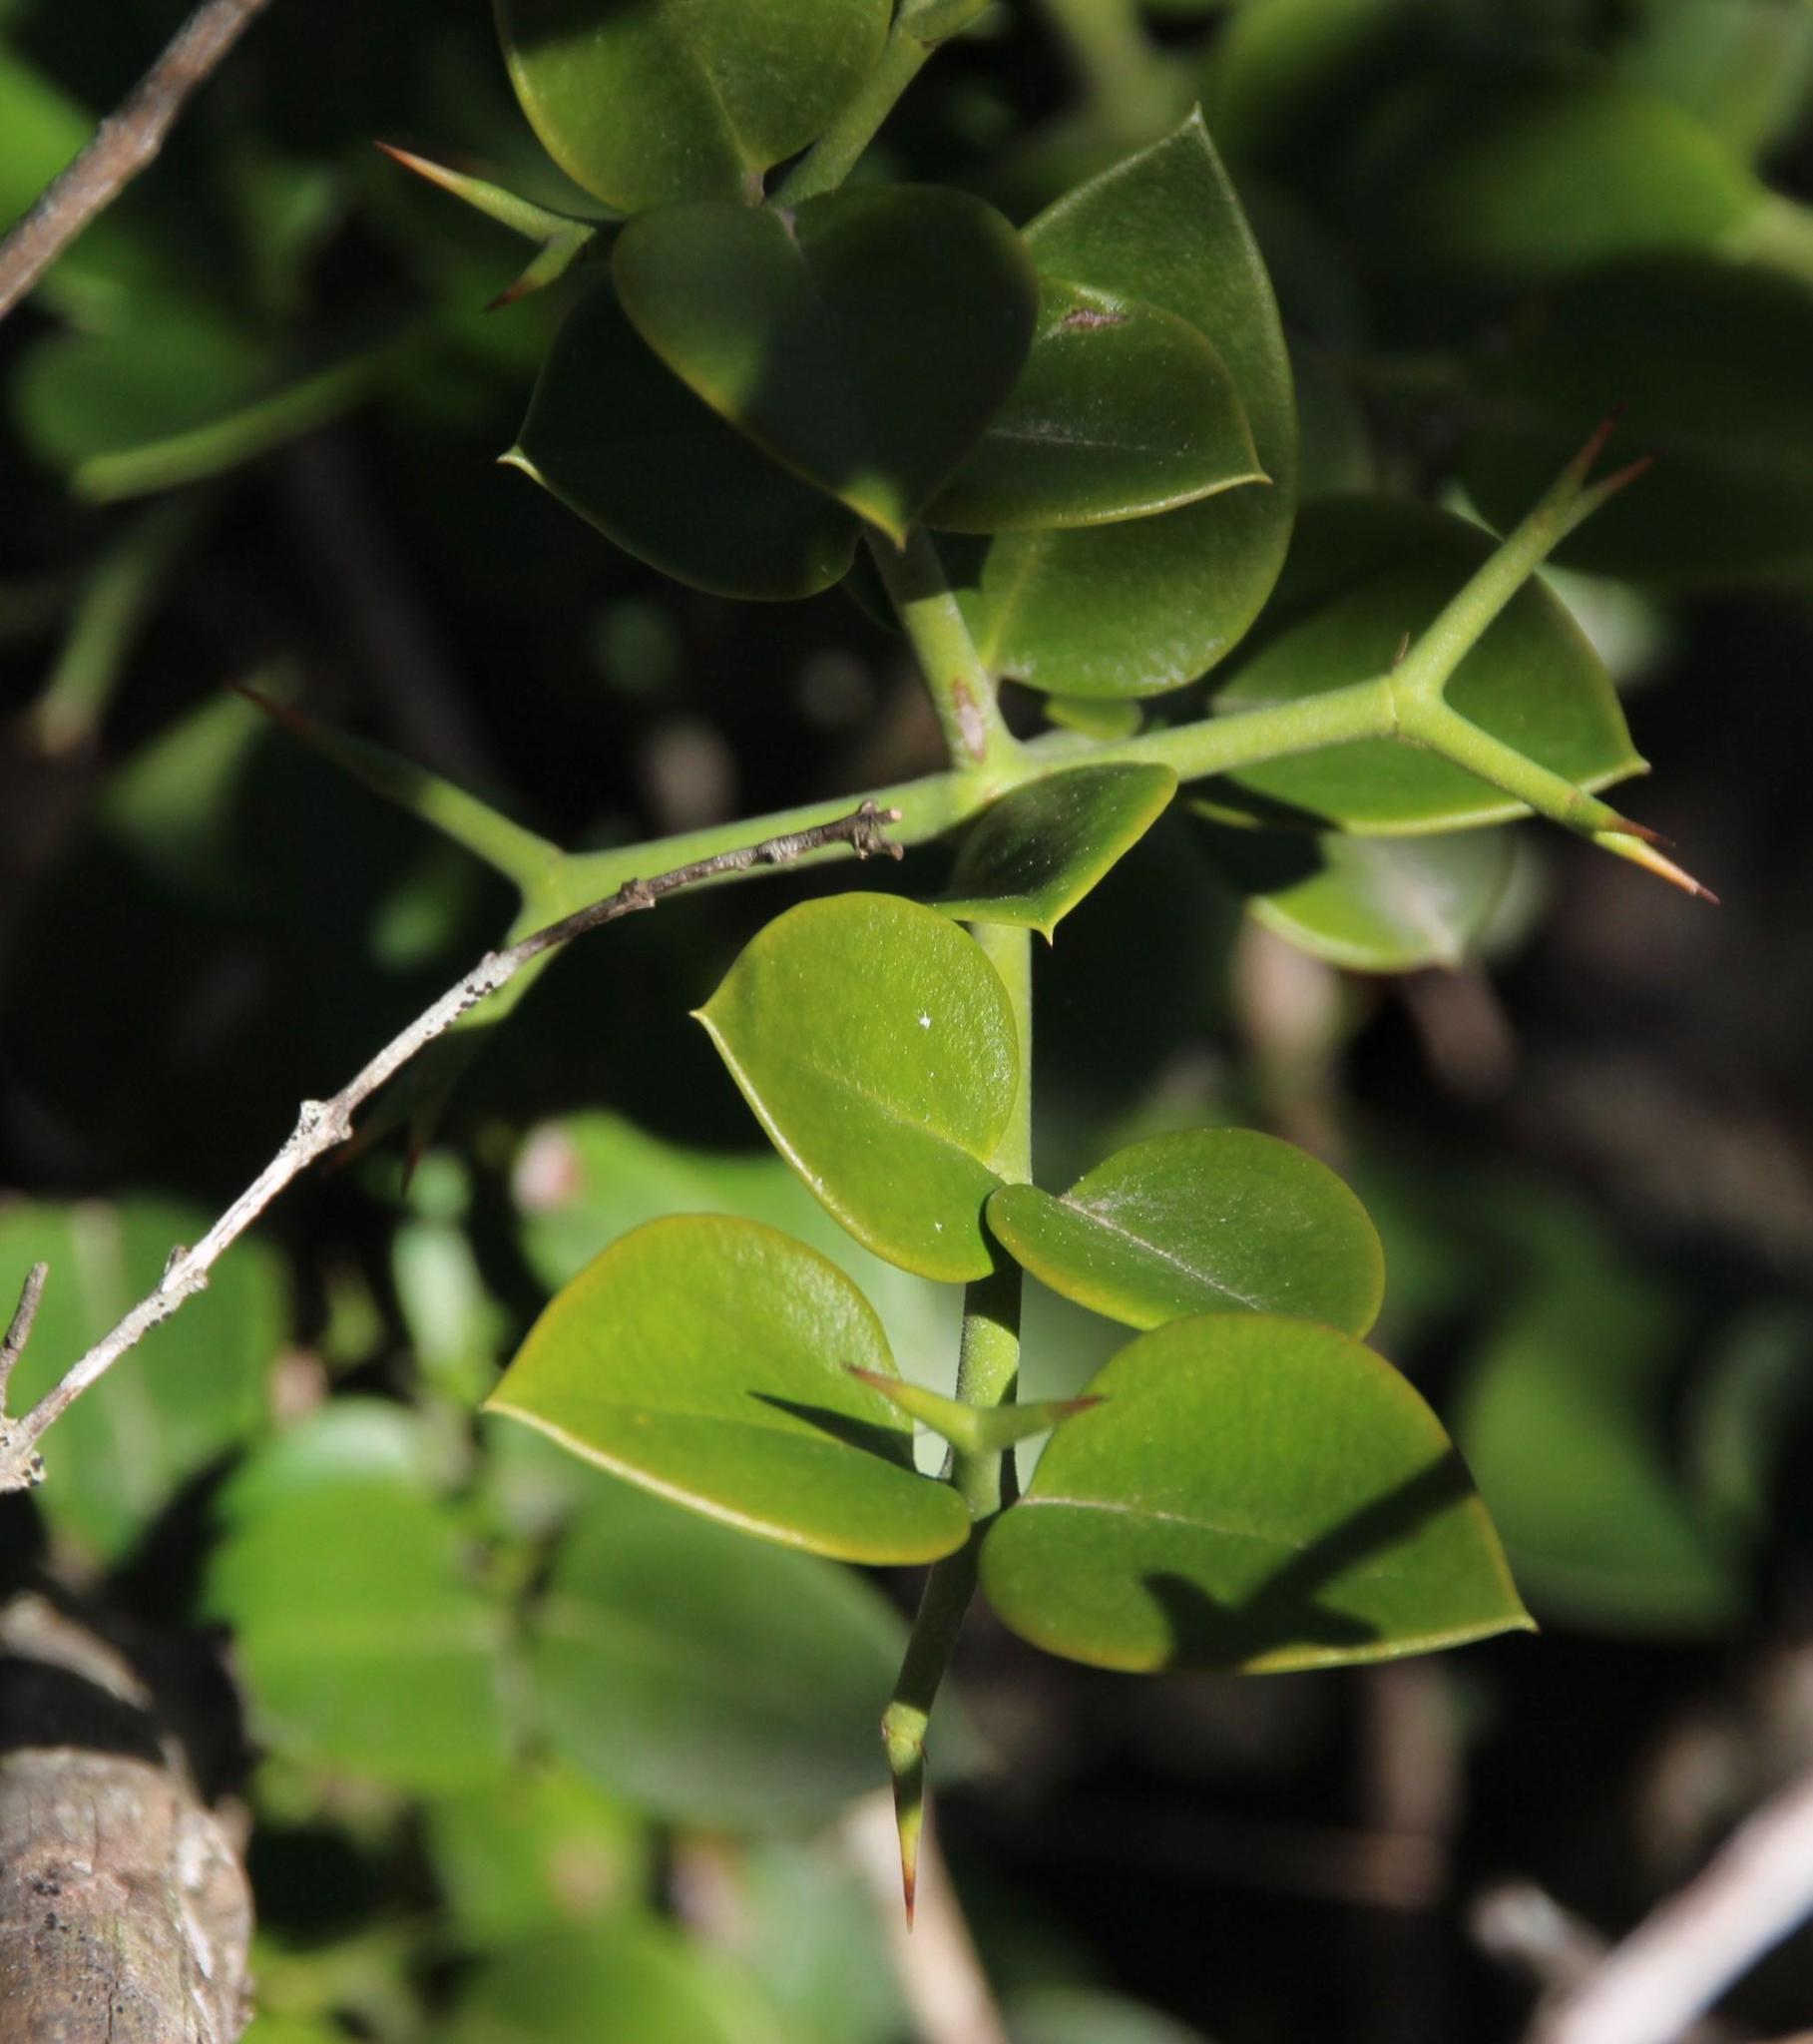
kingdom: Plantae
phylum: Tracheophyta
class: Magnoliopsida
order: Gentianales
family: Apocynaceae
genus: Carissa
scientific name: Carissa bispinosa
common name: Forest num-num
